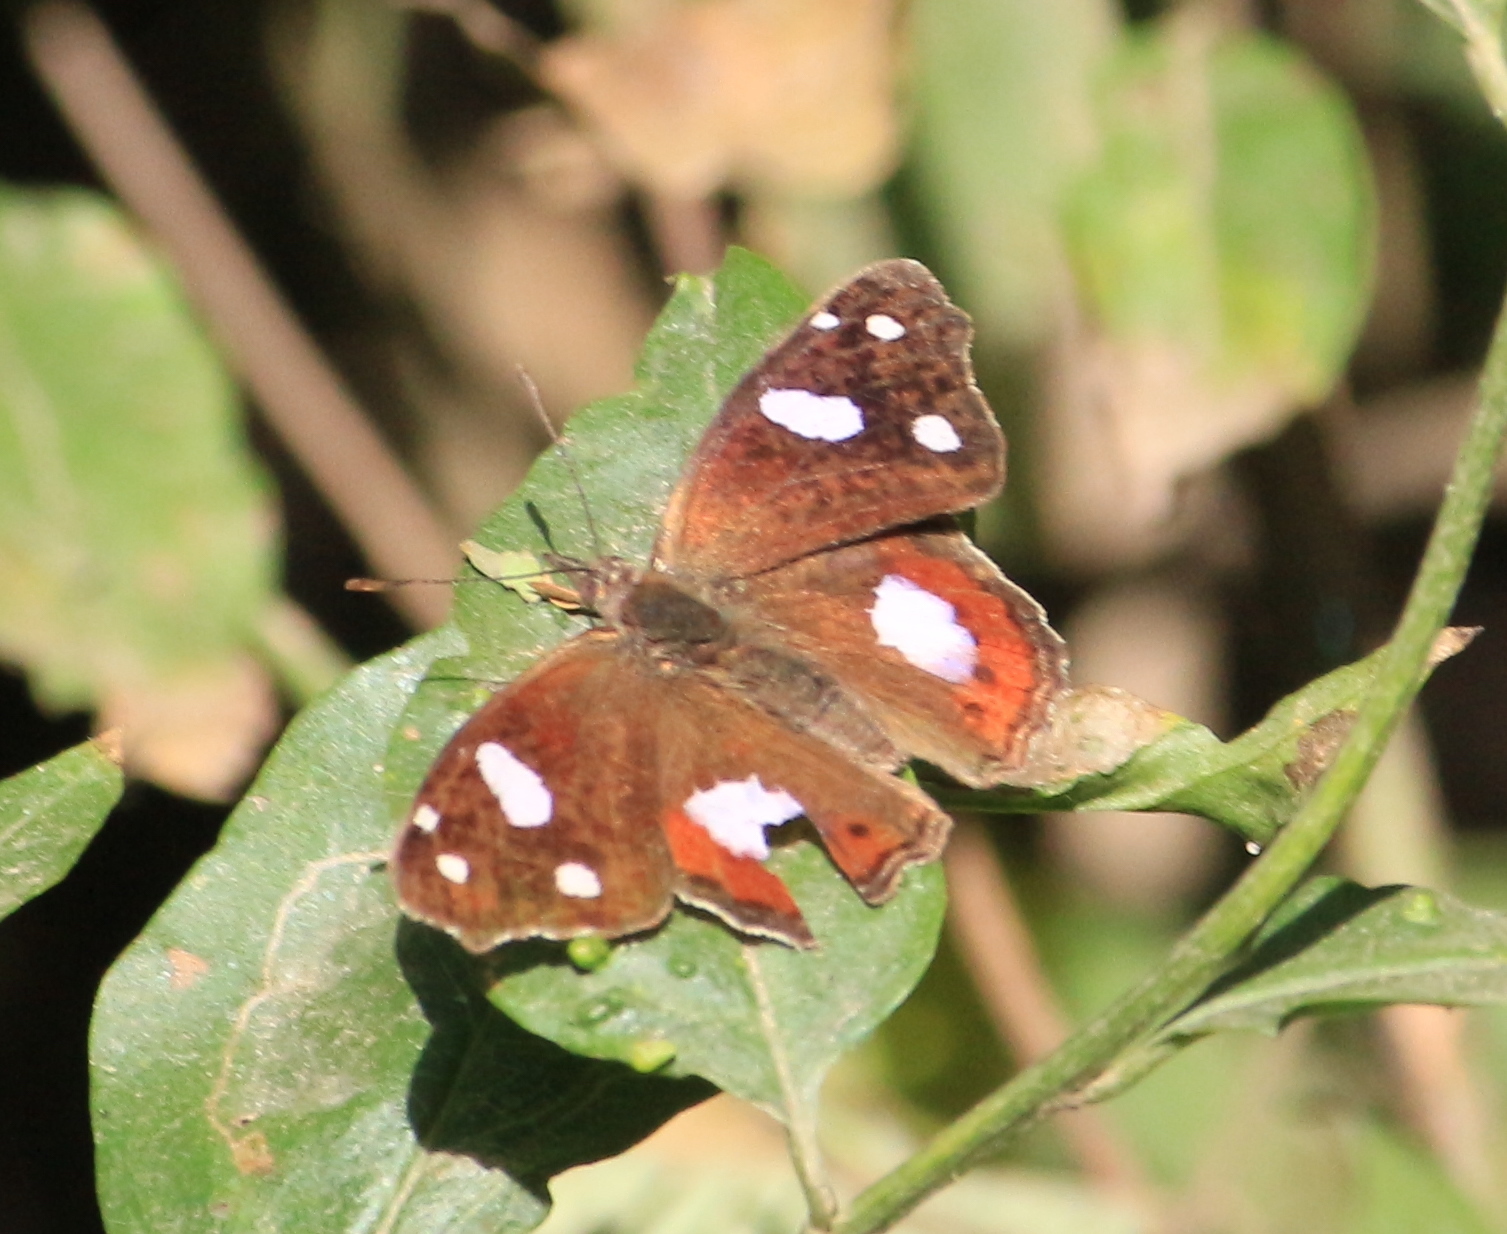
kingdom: Animalia
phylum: Arthropoda
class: Insecta
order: Lepidoptera
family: Nymphalidae
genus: Cybdelis
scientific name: Cybdelis
